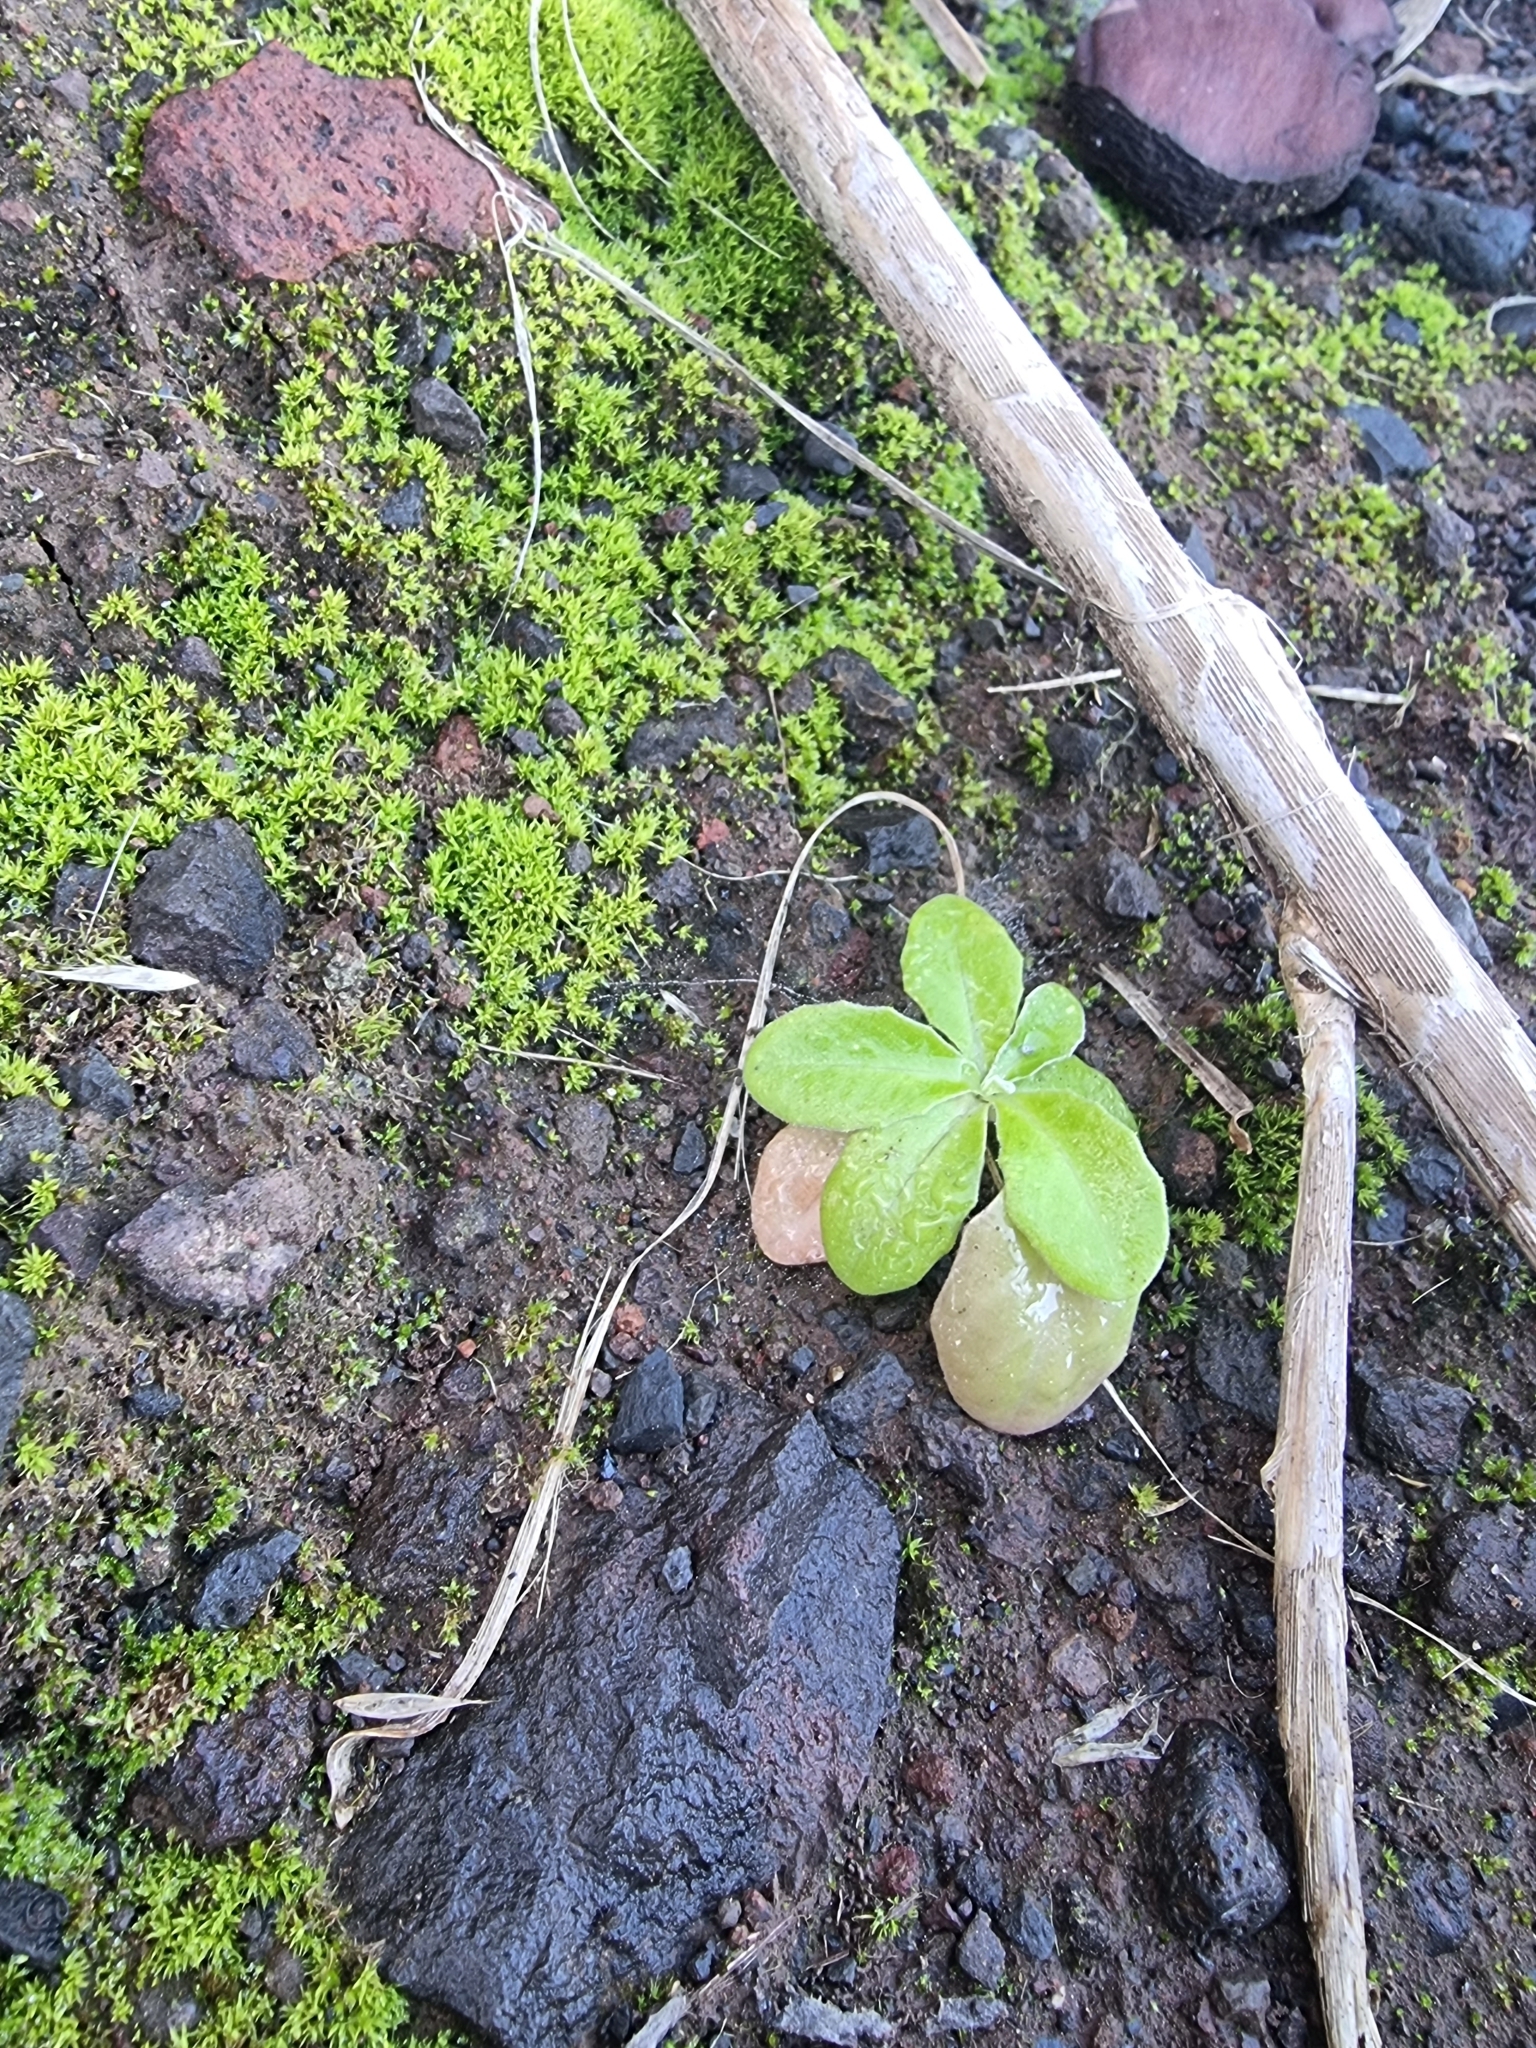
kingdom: Plantae
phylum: Tracheophyta
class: Magnoliopsida
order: Brassicales
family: Brassicaceae
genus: Sinapidendron
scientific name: Sinapidendron rupestre
